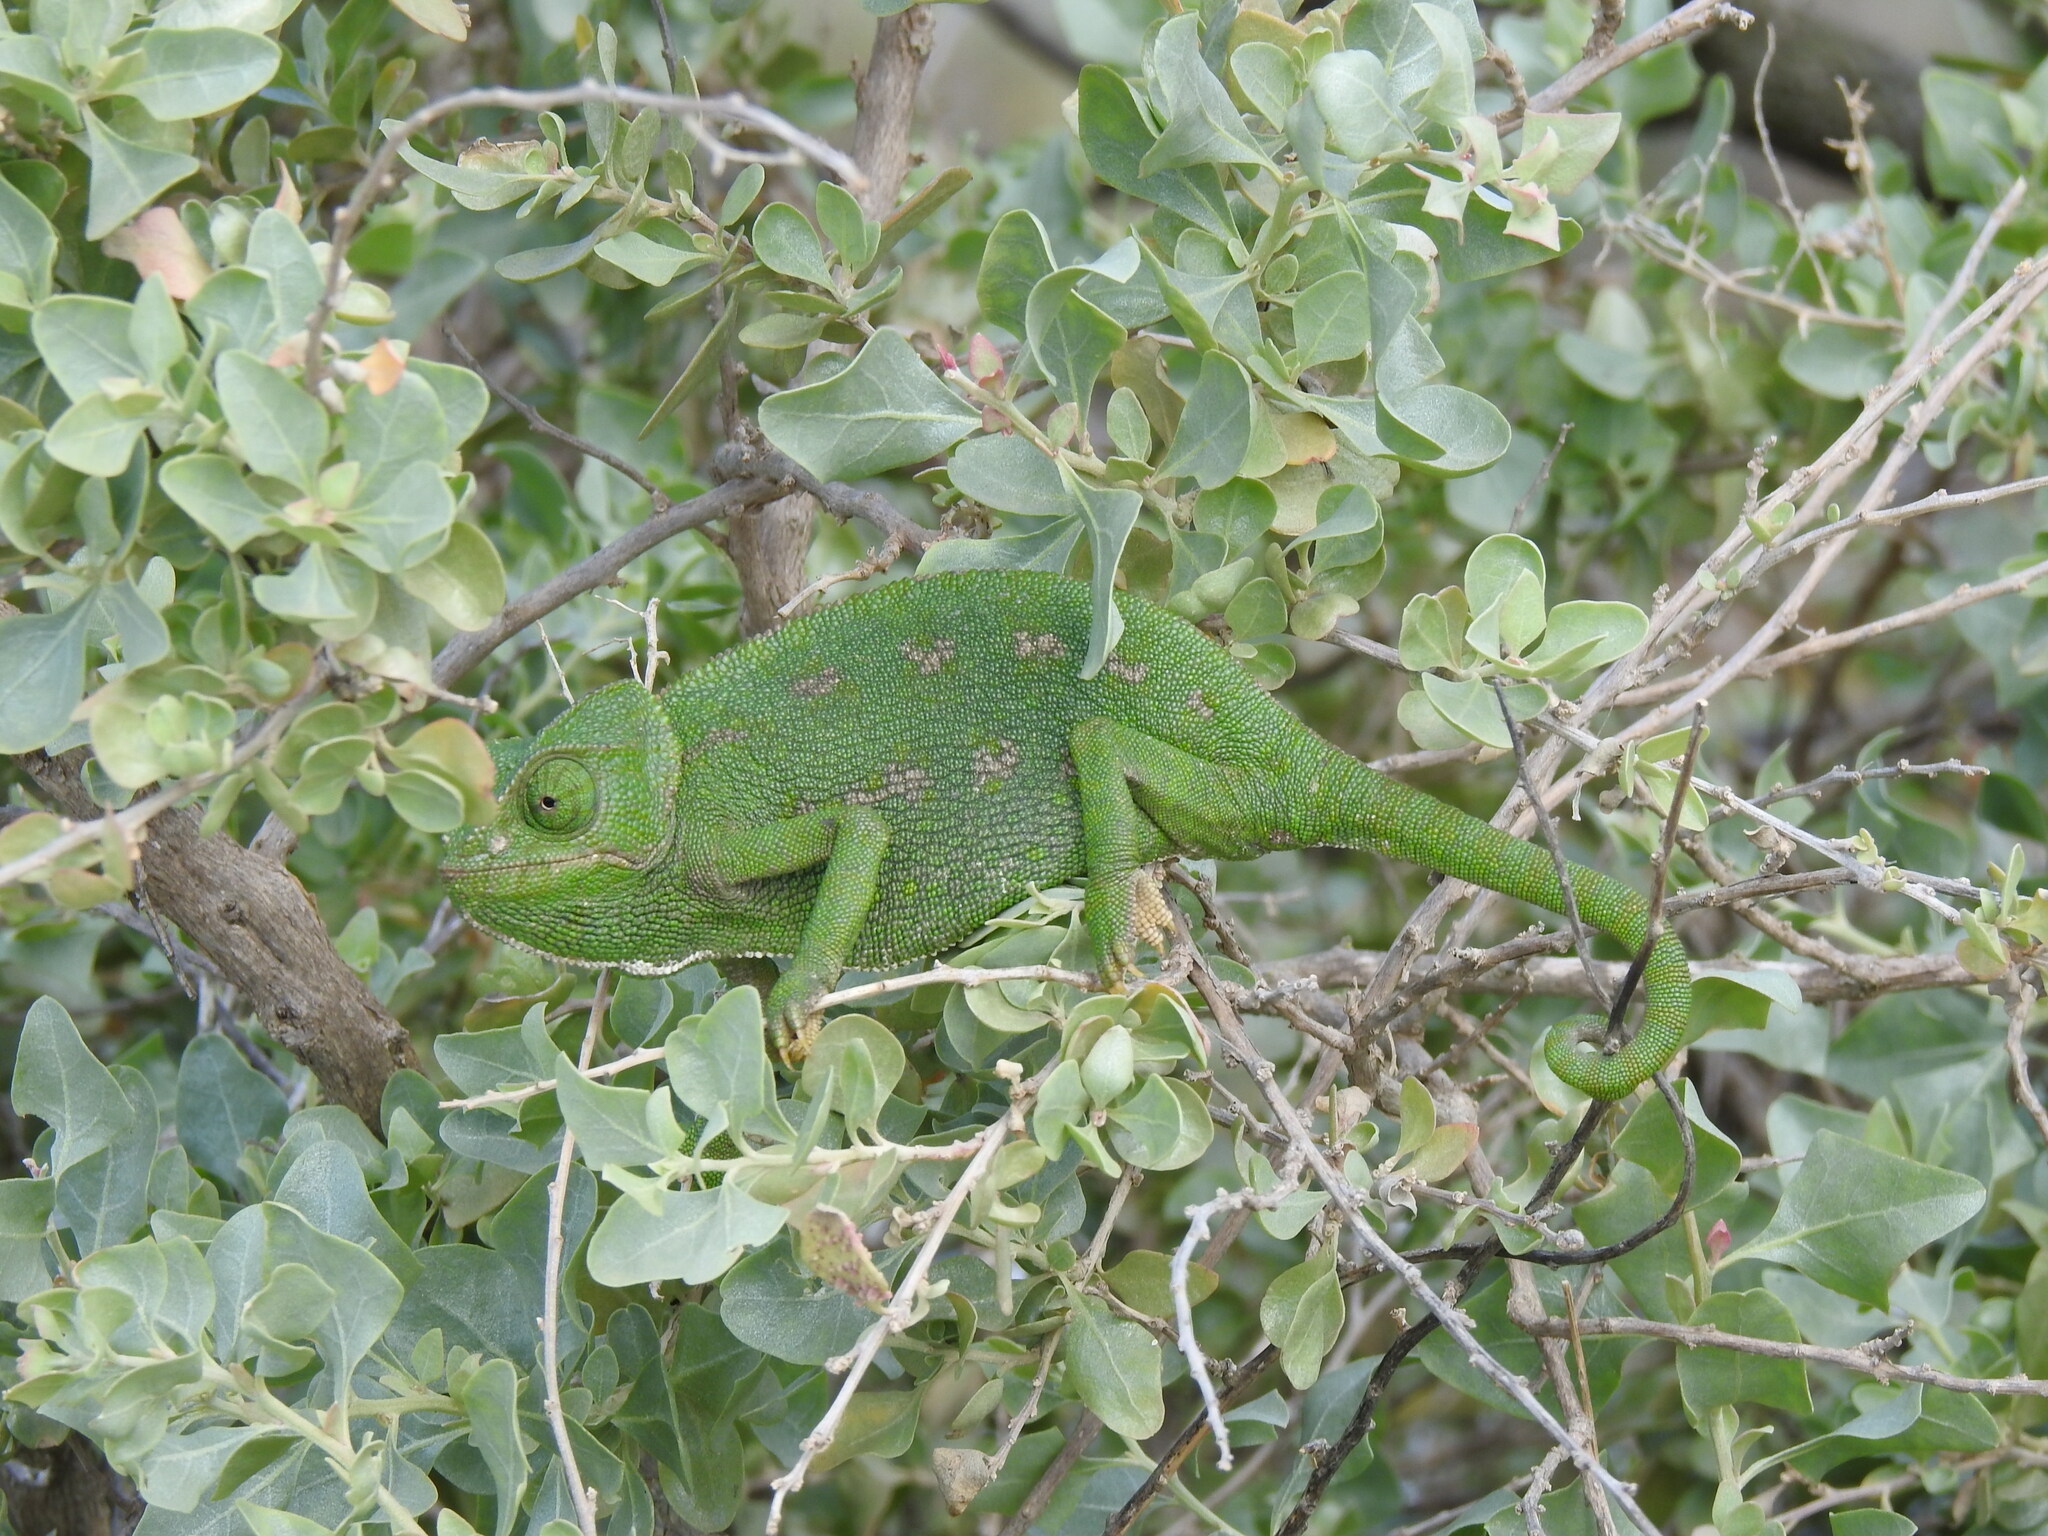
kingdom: Animalia
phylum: Chordata
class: Squamata
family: Chamaeleonidae
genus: Chamaeleo
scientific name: Chamaeleo chamaeleon
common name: Mediterranean chameleon
